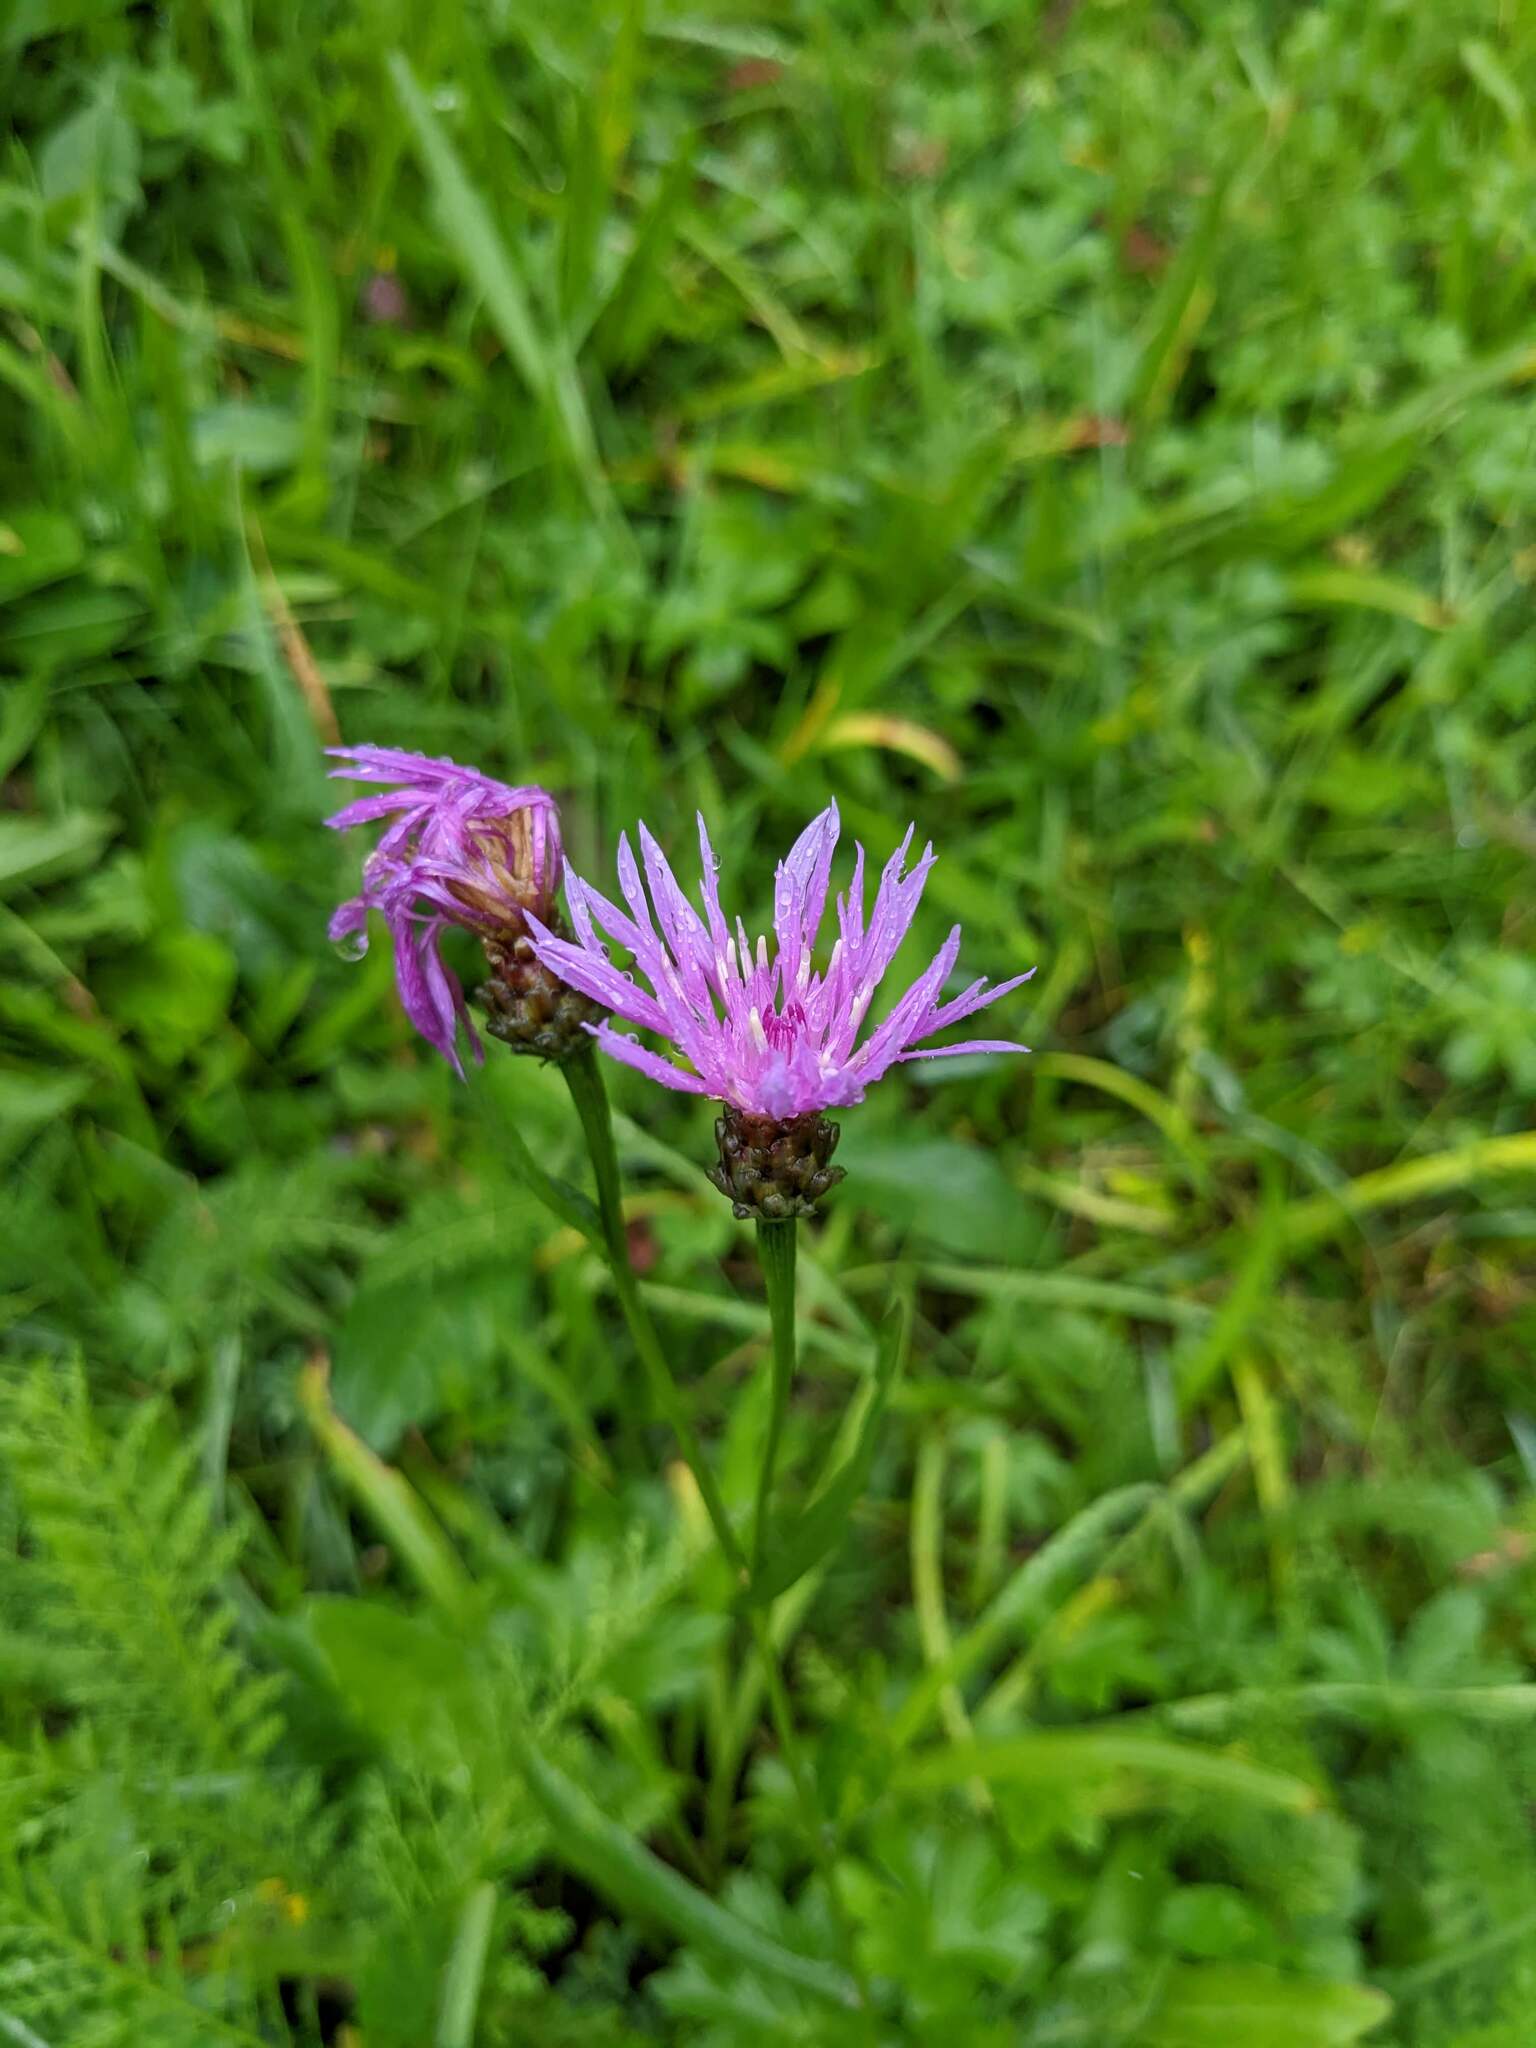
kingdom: Plantae
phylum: Tracheophyta
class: Magnoliopsida
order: Asterales
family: Asteraceae
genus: Centaurea
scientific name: Centaurea jacea
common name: Brown knapweed
